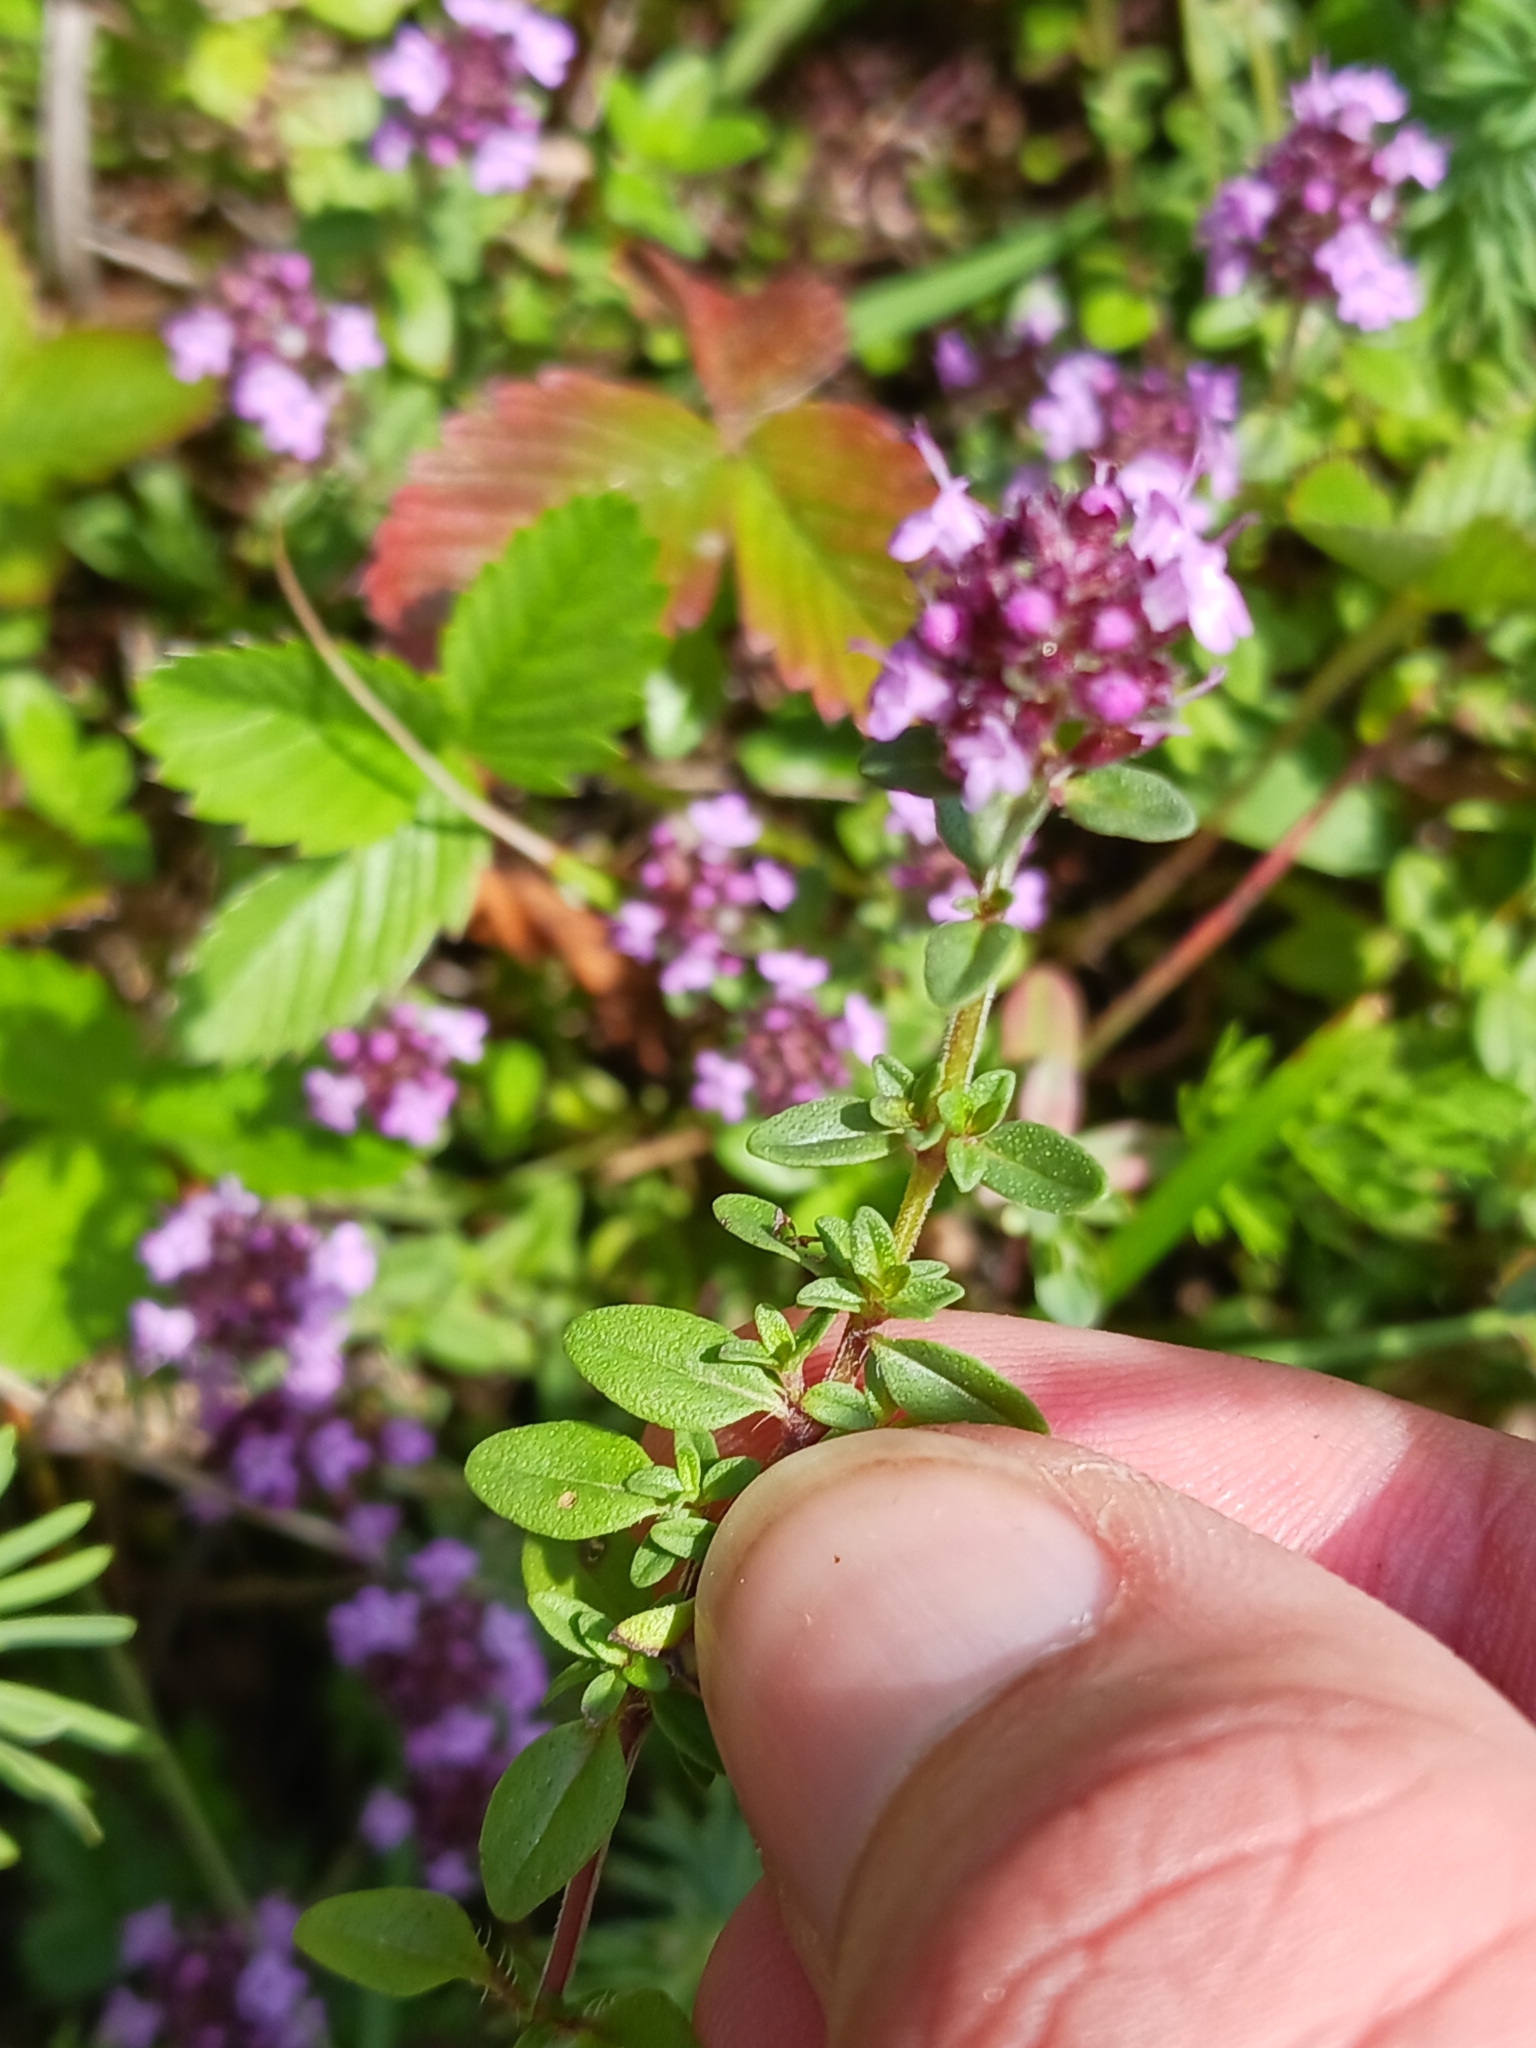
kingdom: Plantae
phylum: Tracheophyta
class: Magnoliopsida
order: Lamiales
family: Lamiaceae
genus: Thymus
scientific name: Thymus pulegioides
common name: Large thyme
